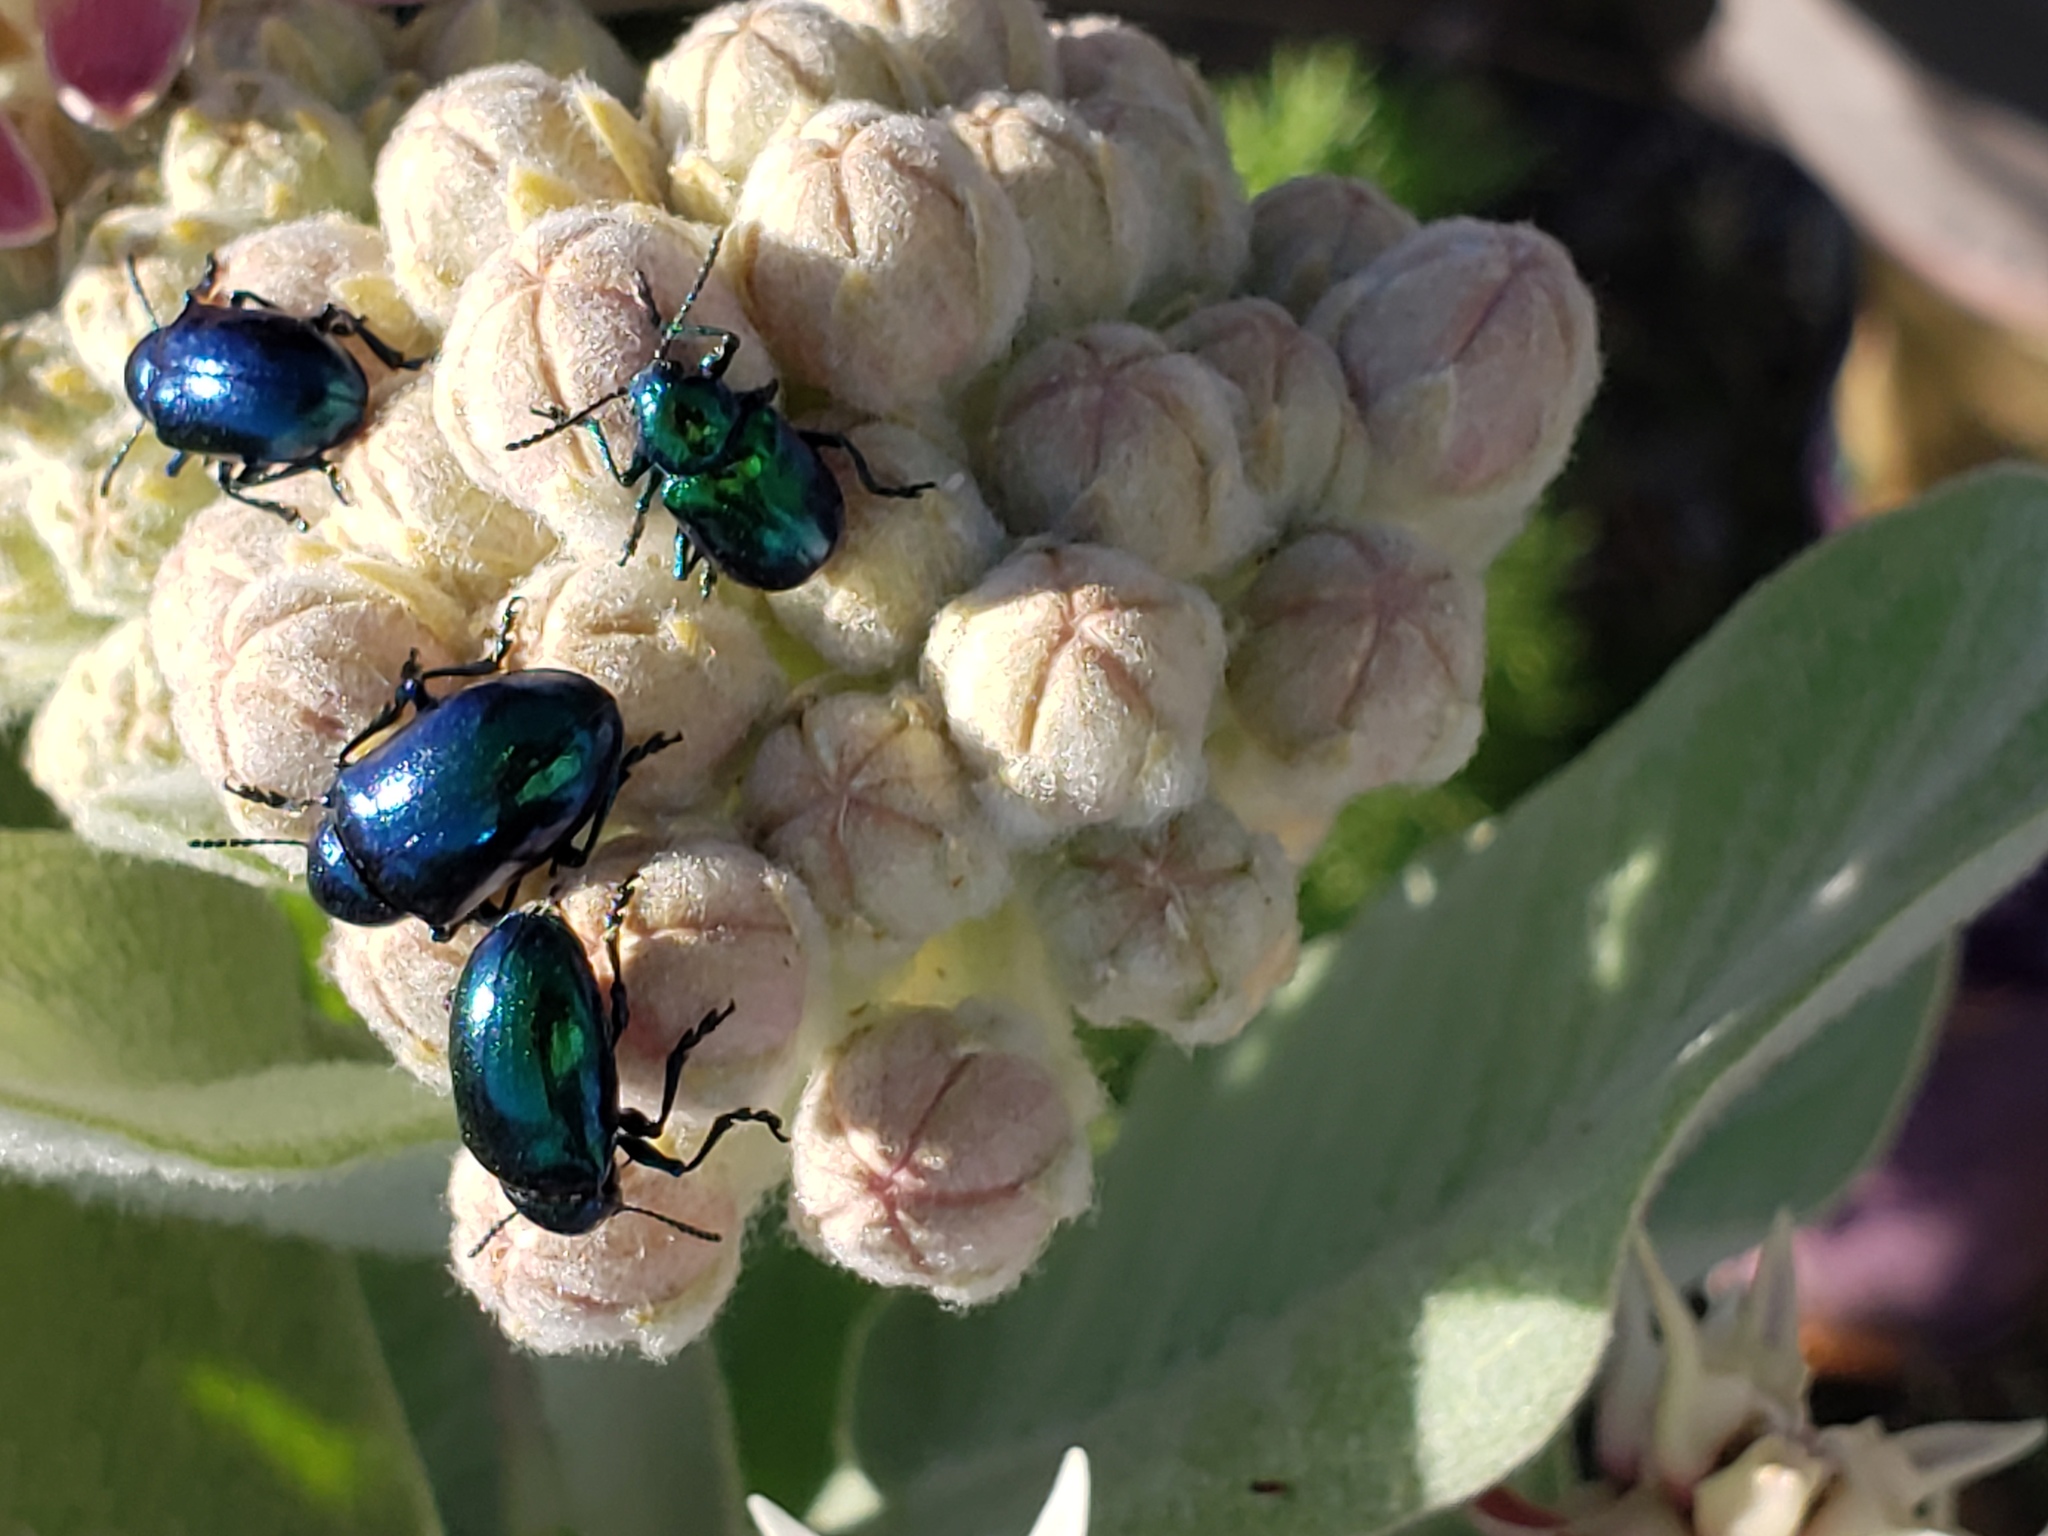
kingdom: Animalia
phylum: Arthropoda
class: Insecta
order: Coleoptera
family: Chrysomelidae
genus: Chrysochus
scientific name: Chrysochus cobaltinus
